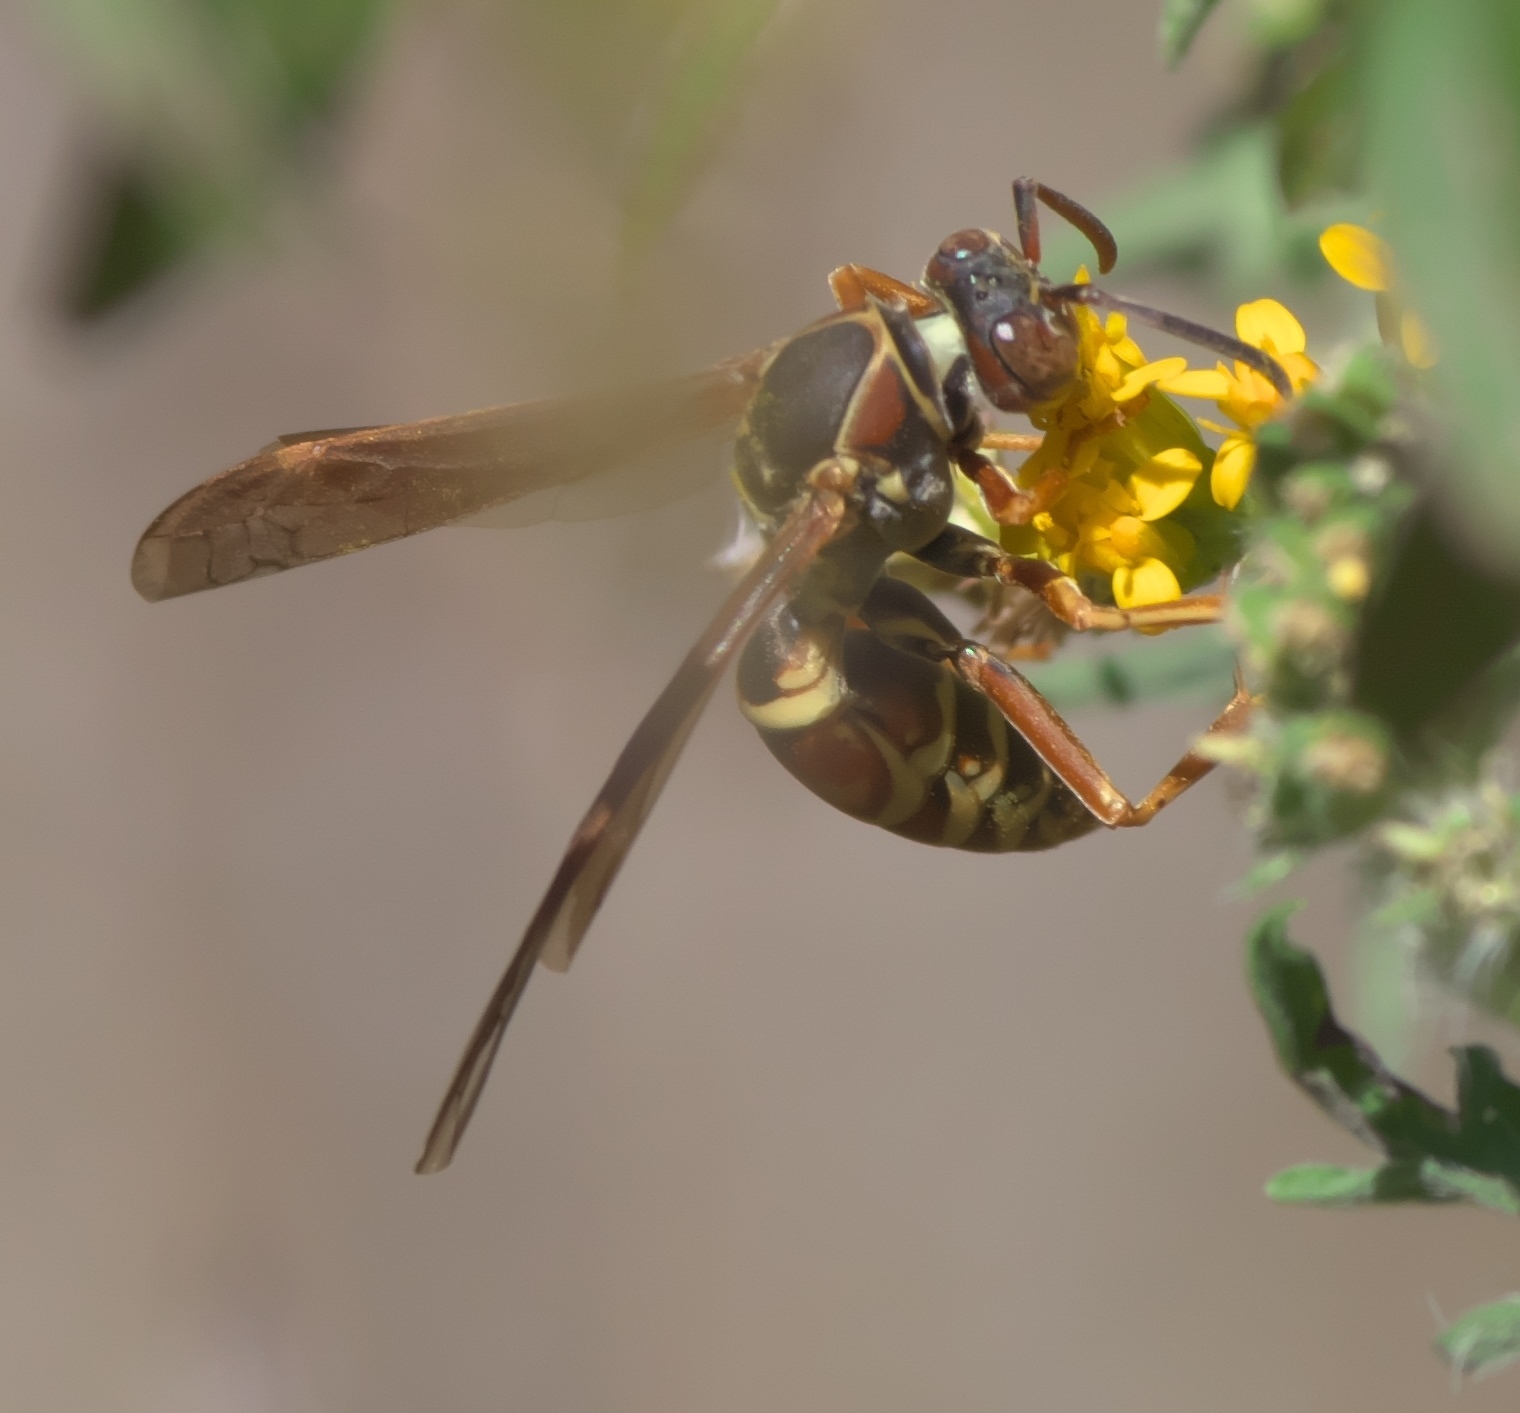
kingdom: Animalia
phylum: Arthropoda
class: Insecta
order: Hymenoptera
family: Eumenidae
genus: Polistes
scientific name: Polistes fuscatus
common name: Dark paper wasp
